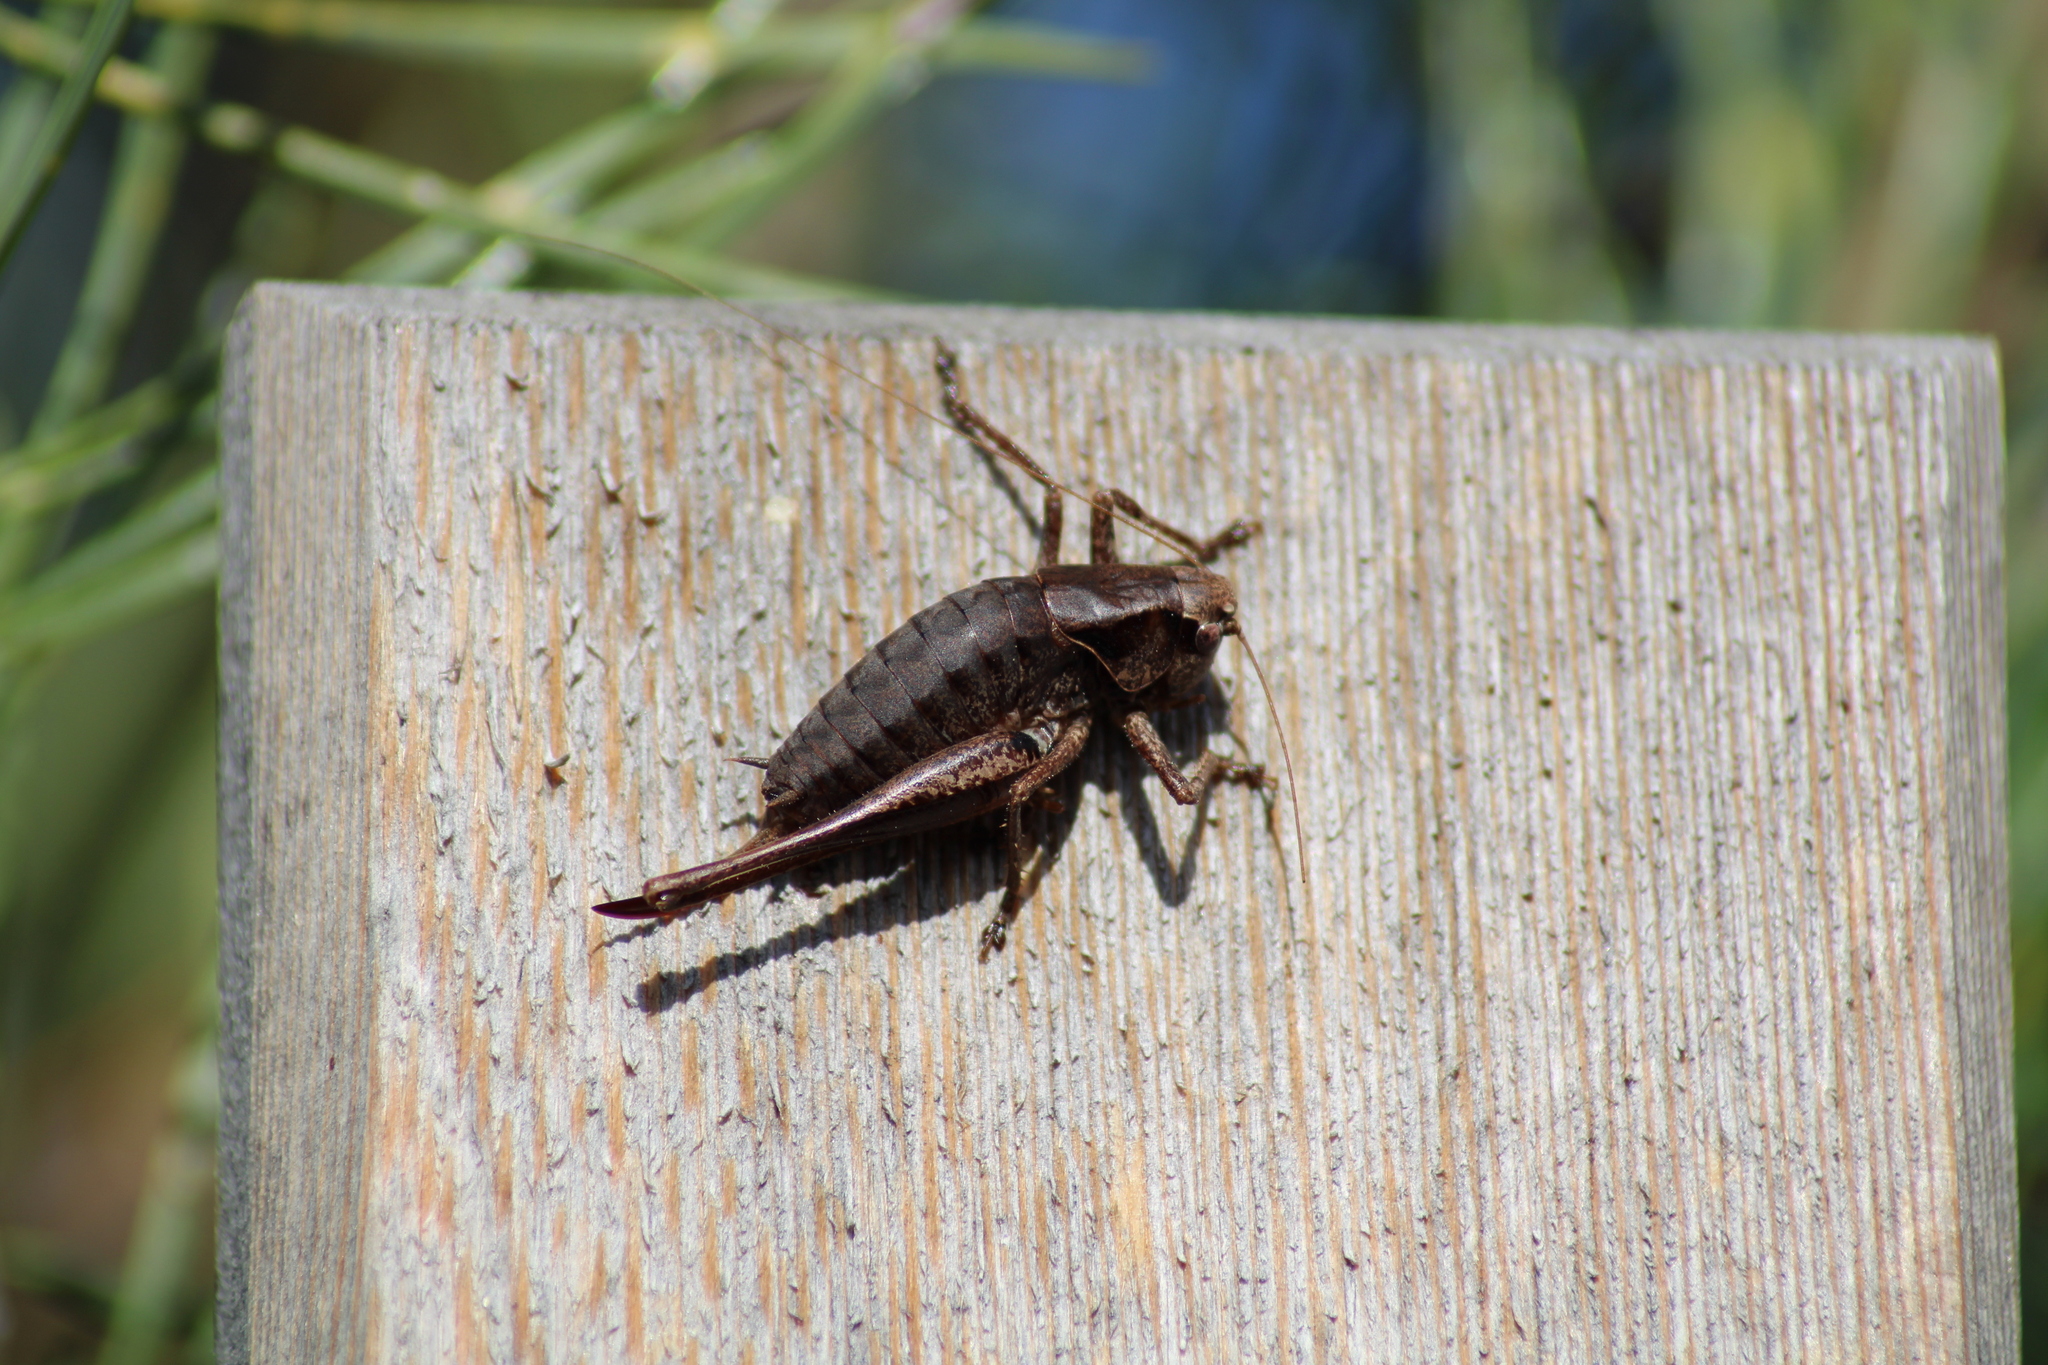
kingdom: Animalia
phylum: Arthropoda
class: Insecta
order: Orthoptera
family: Tettigoniidae
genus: Pholidoptera
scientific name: Pholidoptera griseoaptera
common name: Dark bush-cricket
